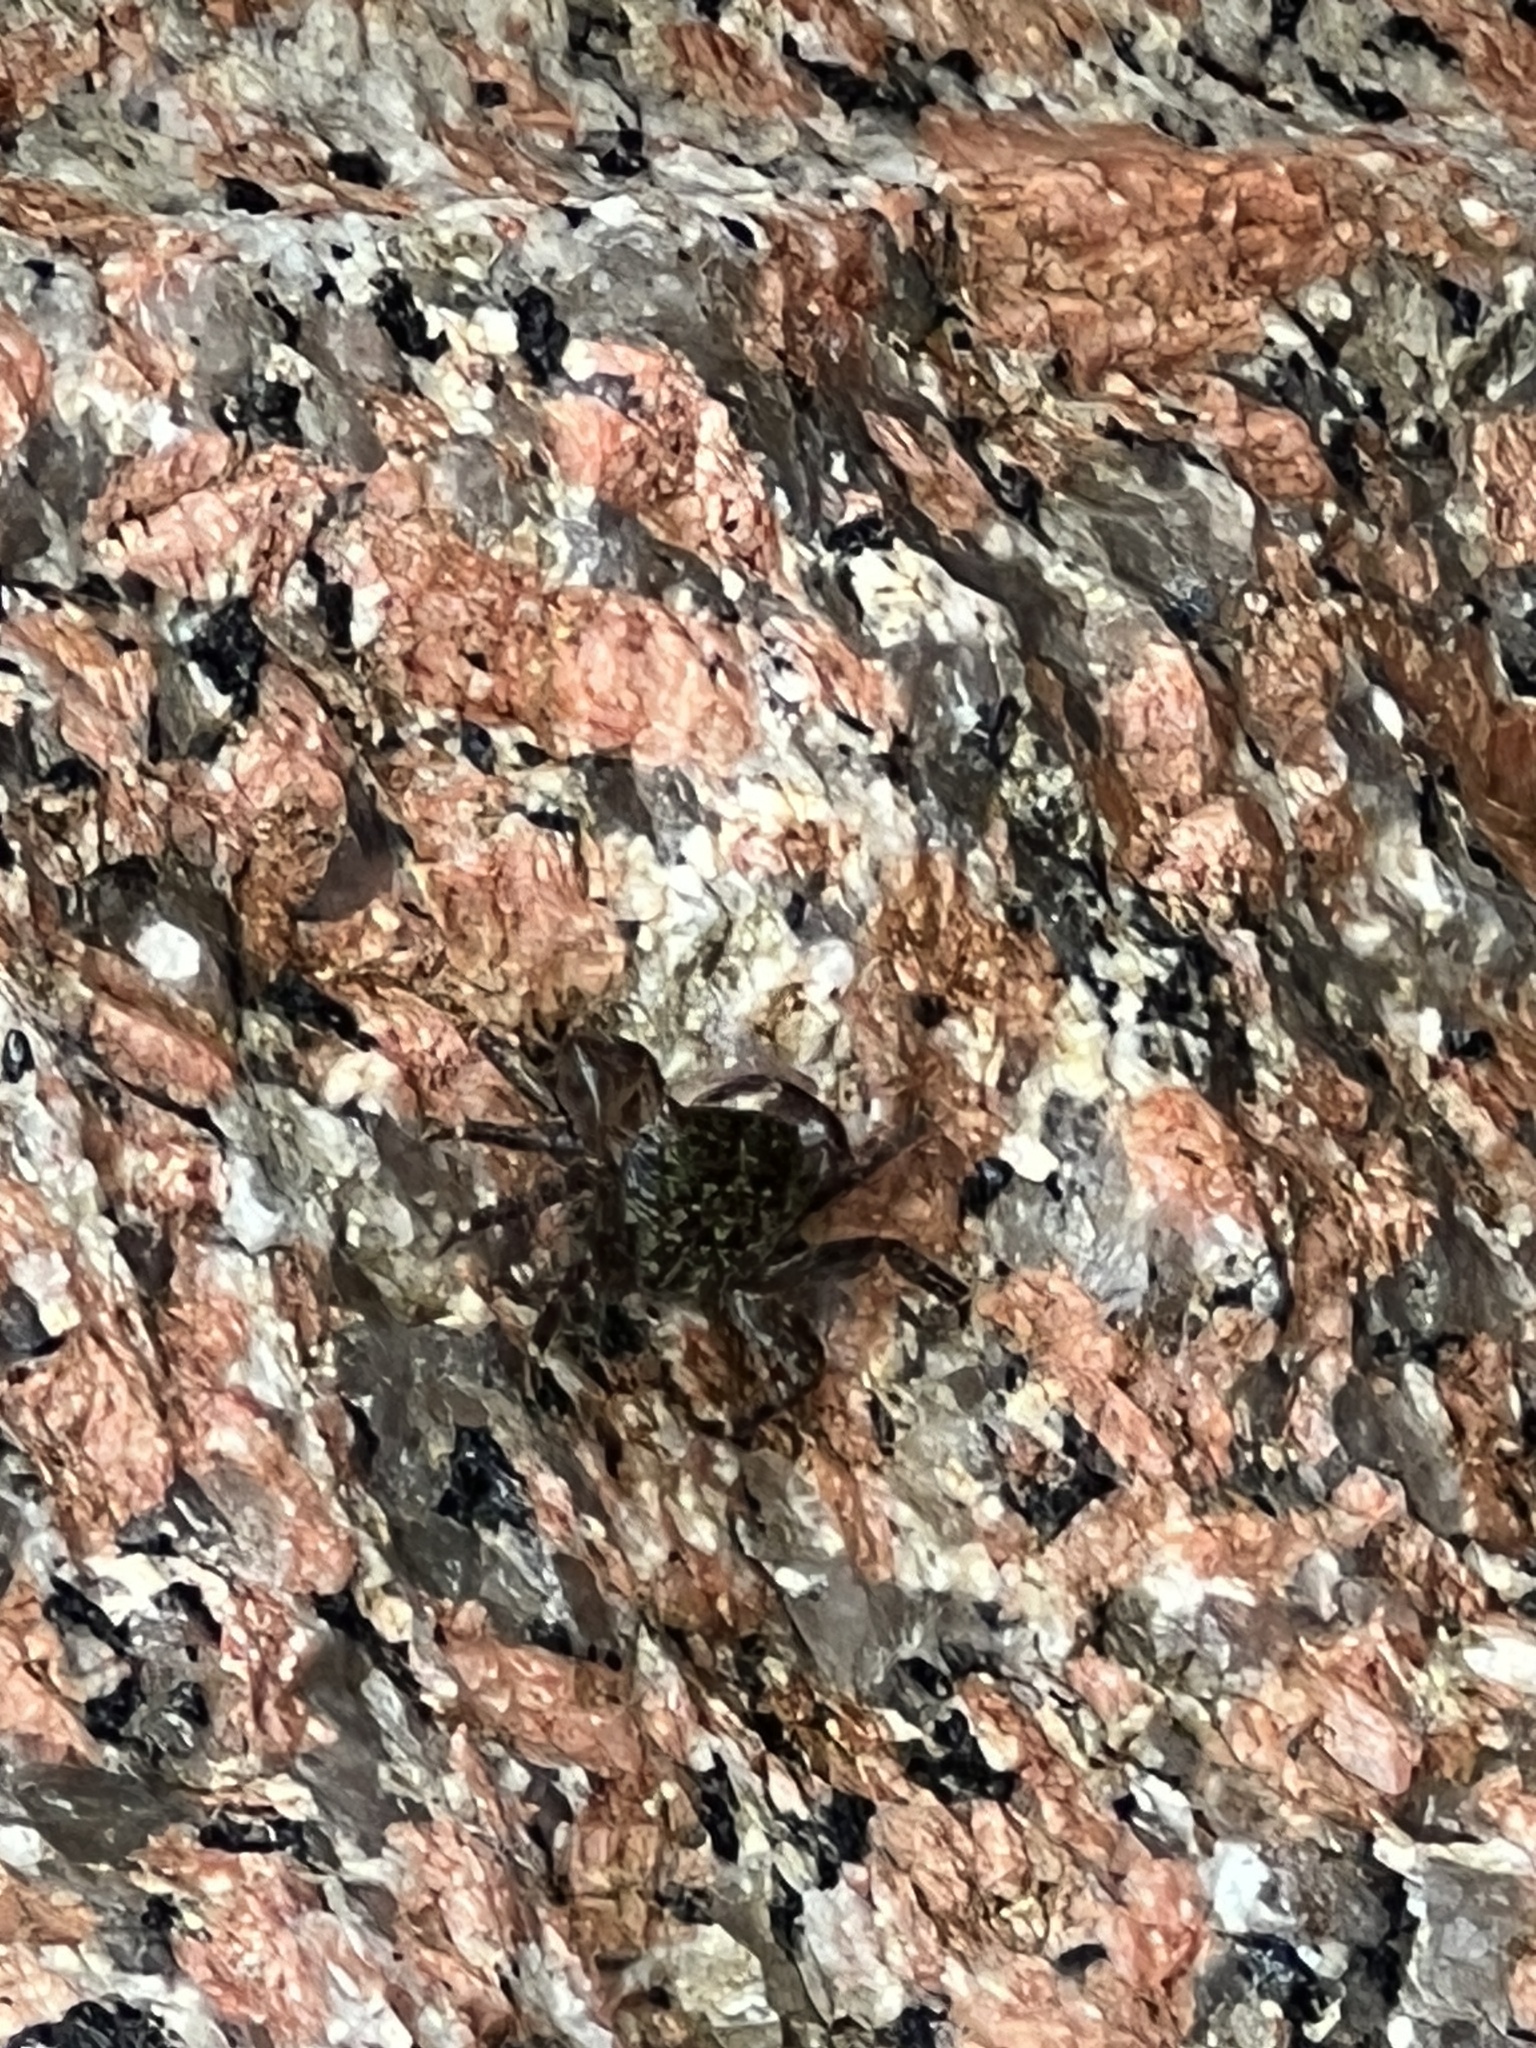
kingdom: Animalia
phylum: Arthropoda
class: Malacostraca
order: Decapoda
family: Grapsidae
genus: Pachygrapsus
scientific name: Pachygrapsus transversus
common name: Mottled shore crab
